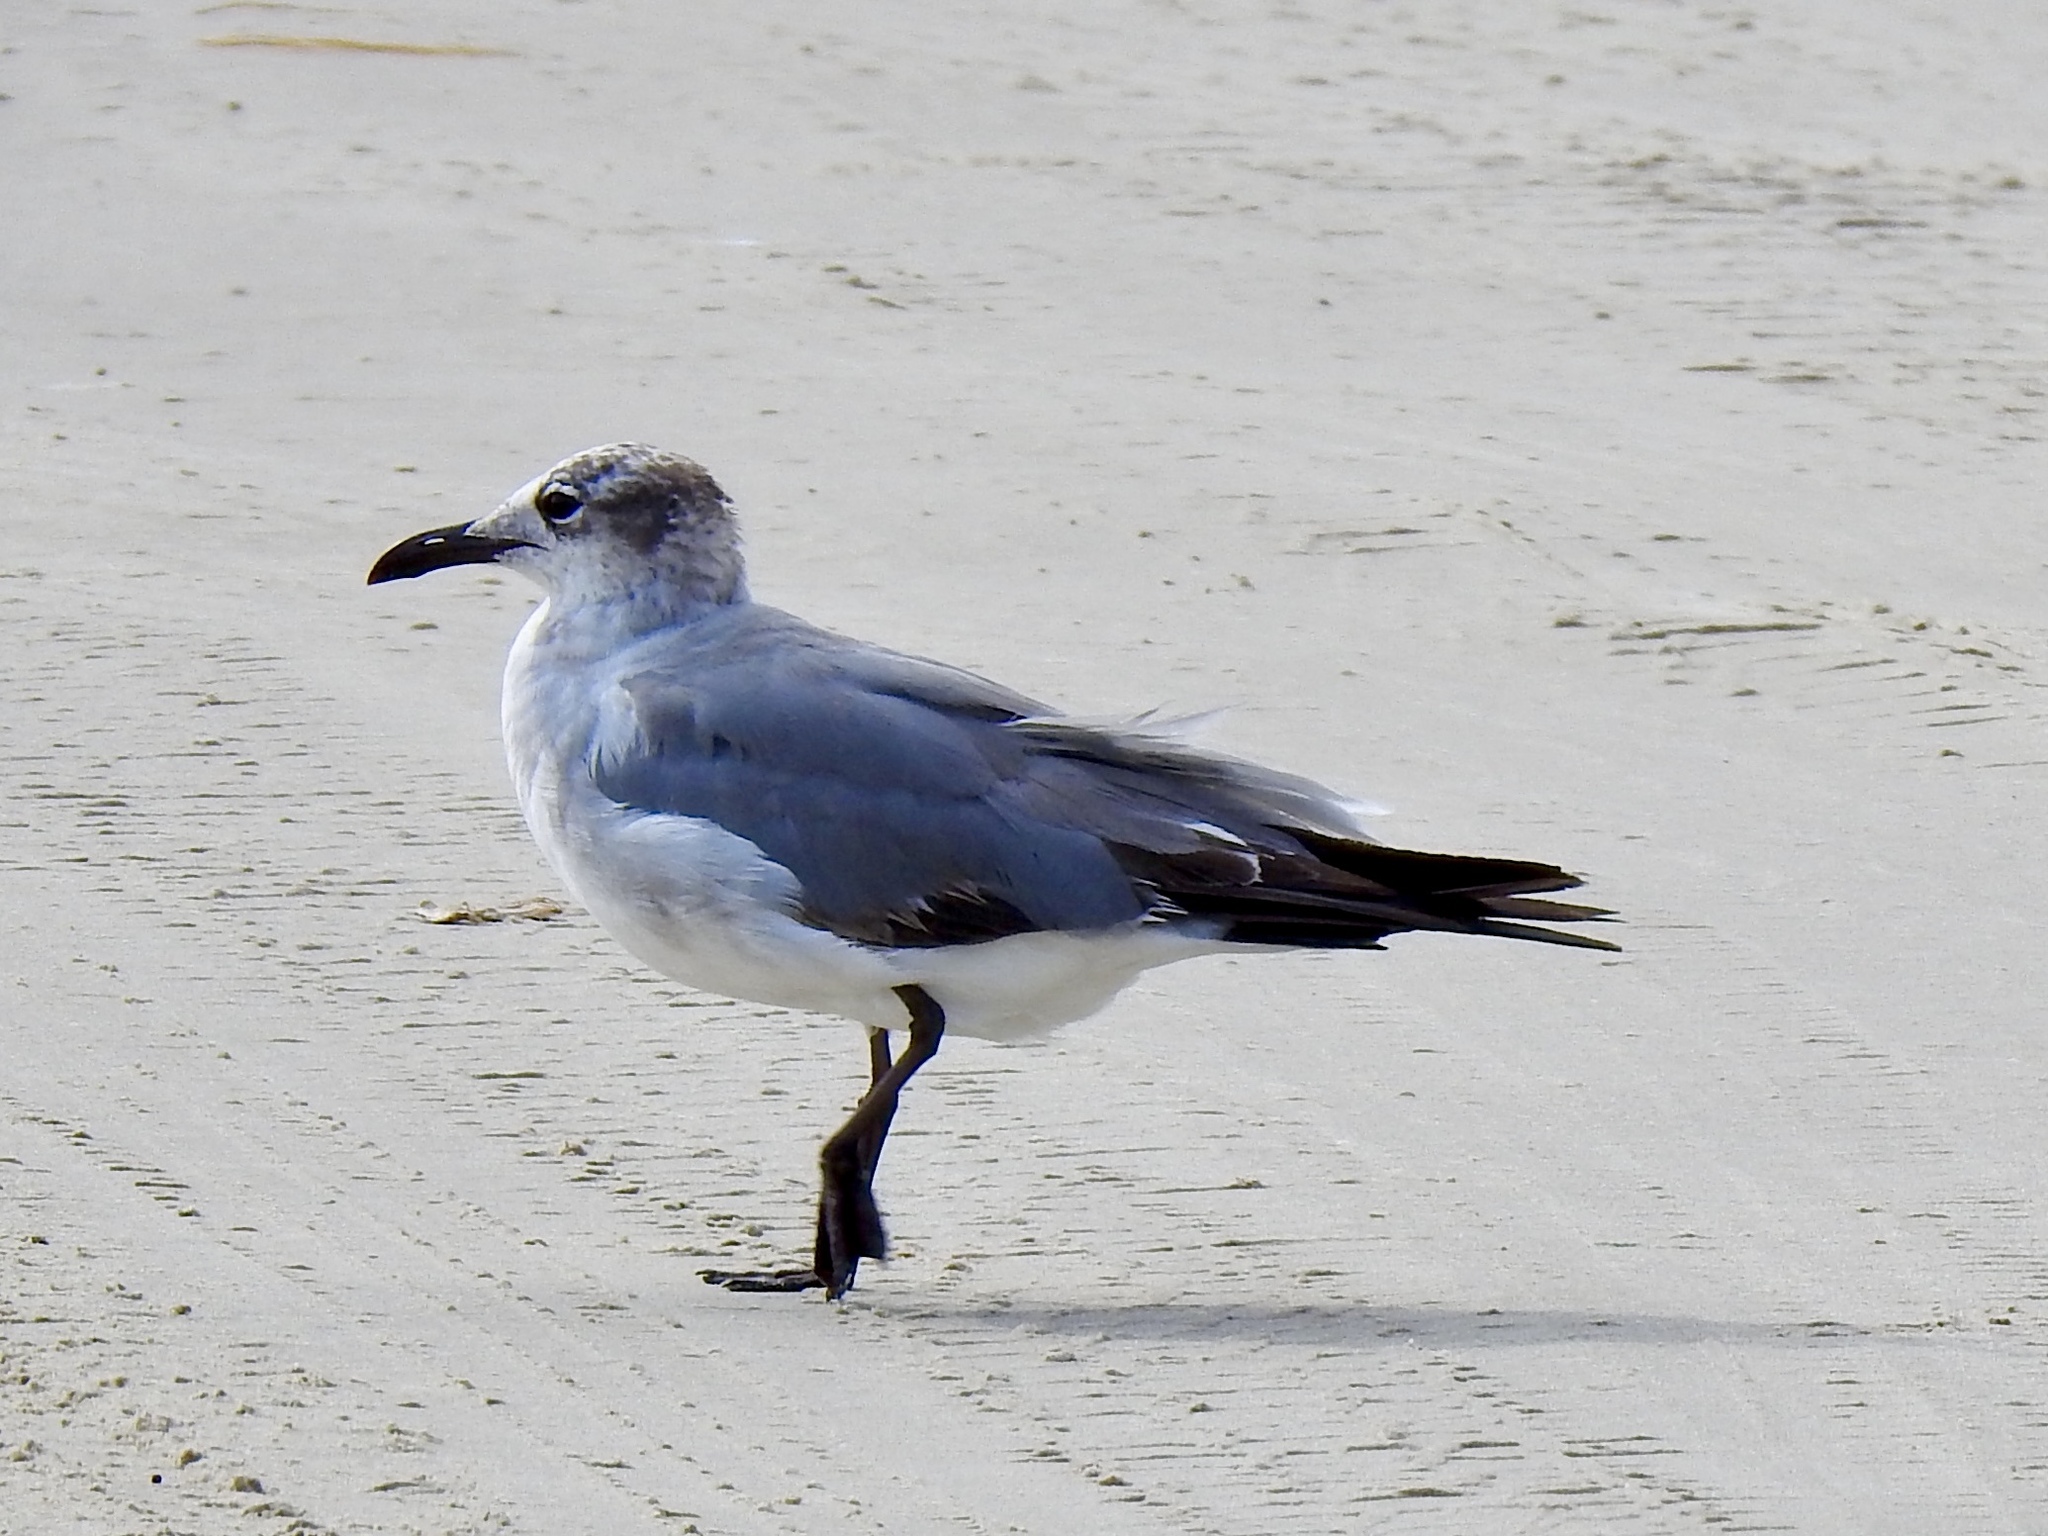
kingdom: Animalia
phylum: Chordata
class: Aves
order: Charadriiformes
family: Laridae
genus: Leucophaeus
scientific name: Leucophaeus atricilla
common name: Laughing gull
